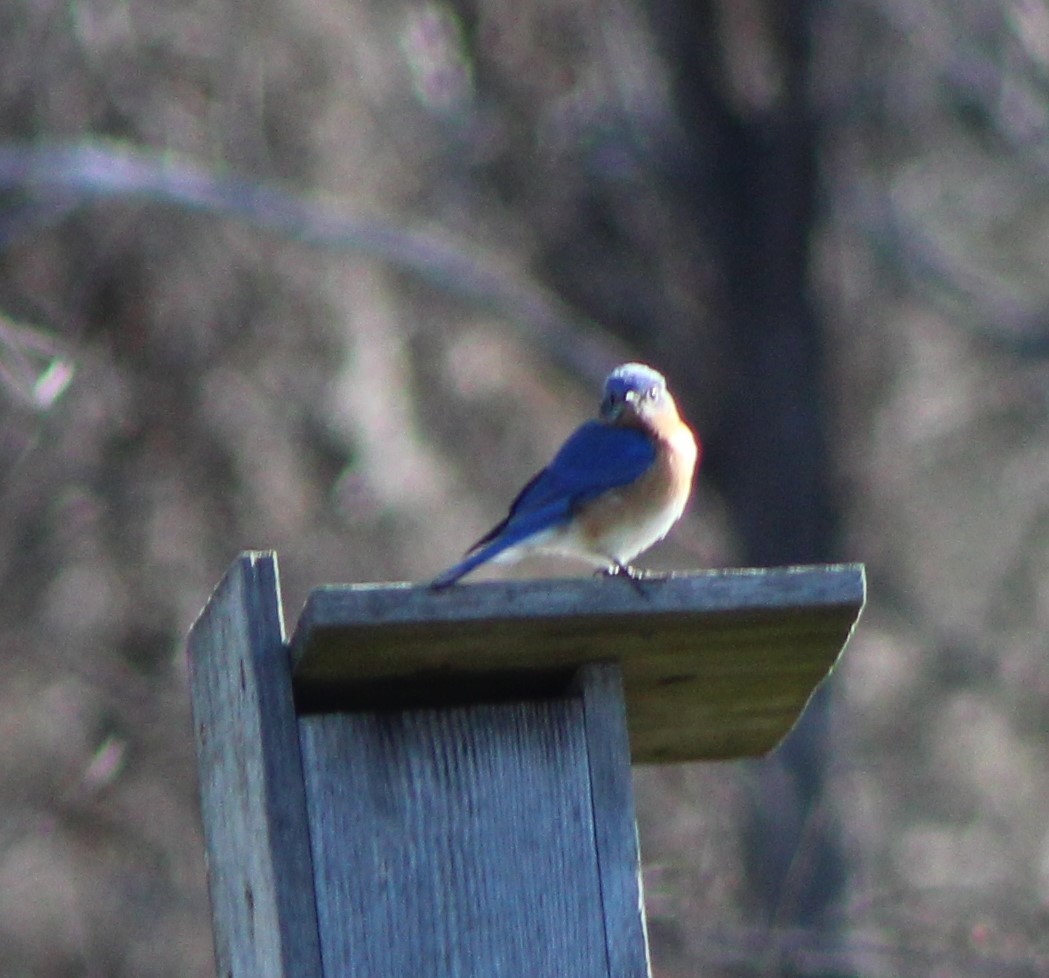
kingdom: Animalia
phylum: Chordata
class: Aves
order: Passeriformes
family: Turdidae
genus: Sialia
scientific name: Sialia sialis
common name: Eastern bluebird
